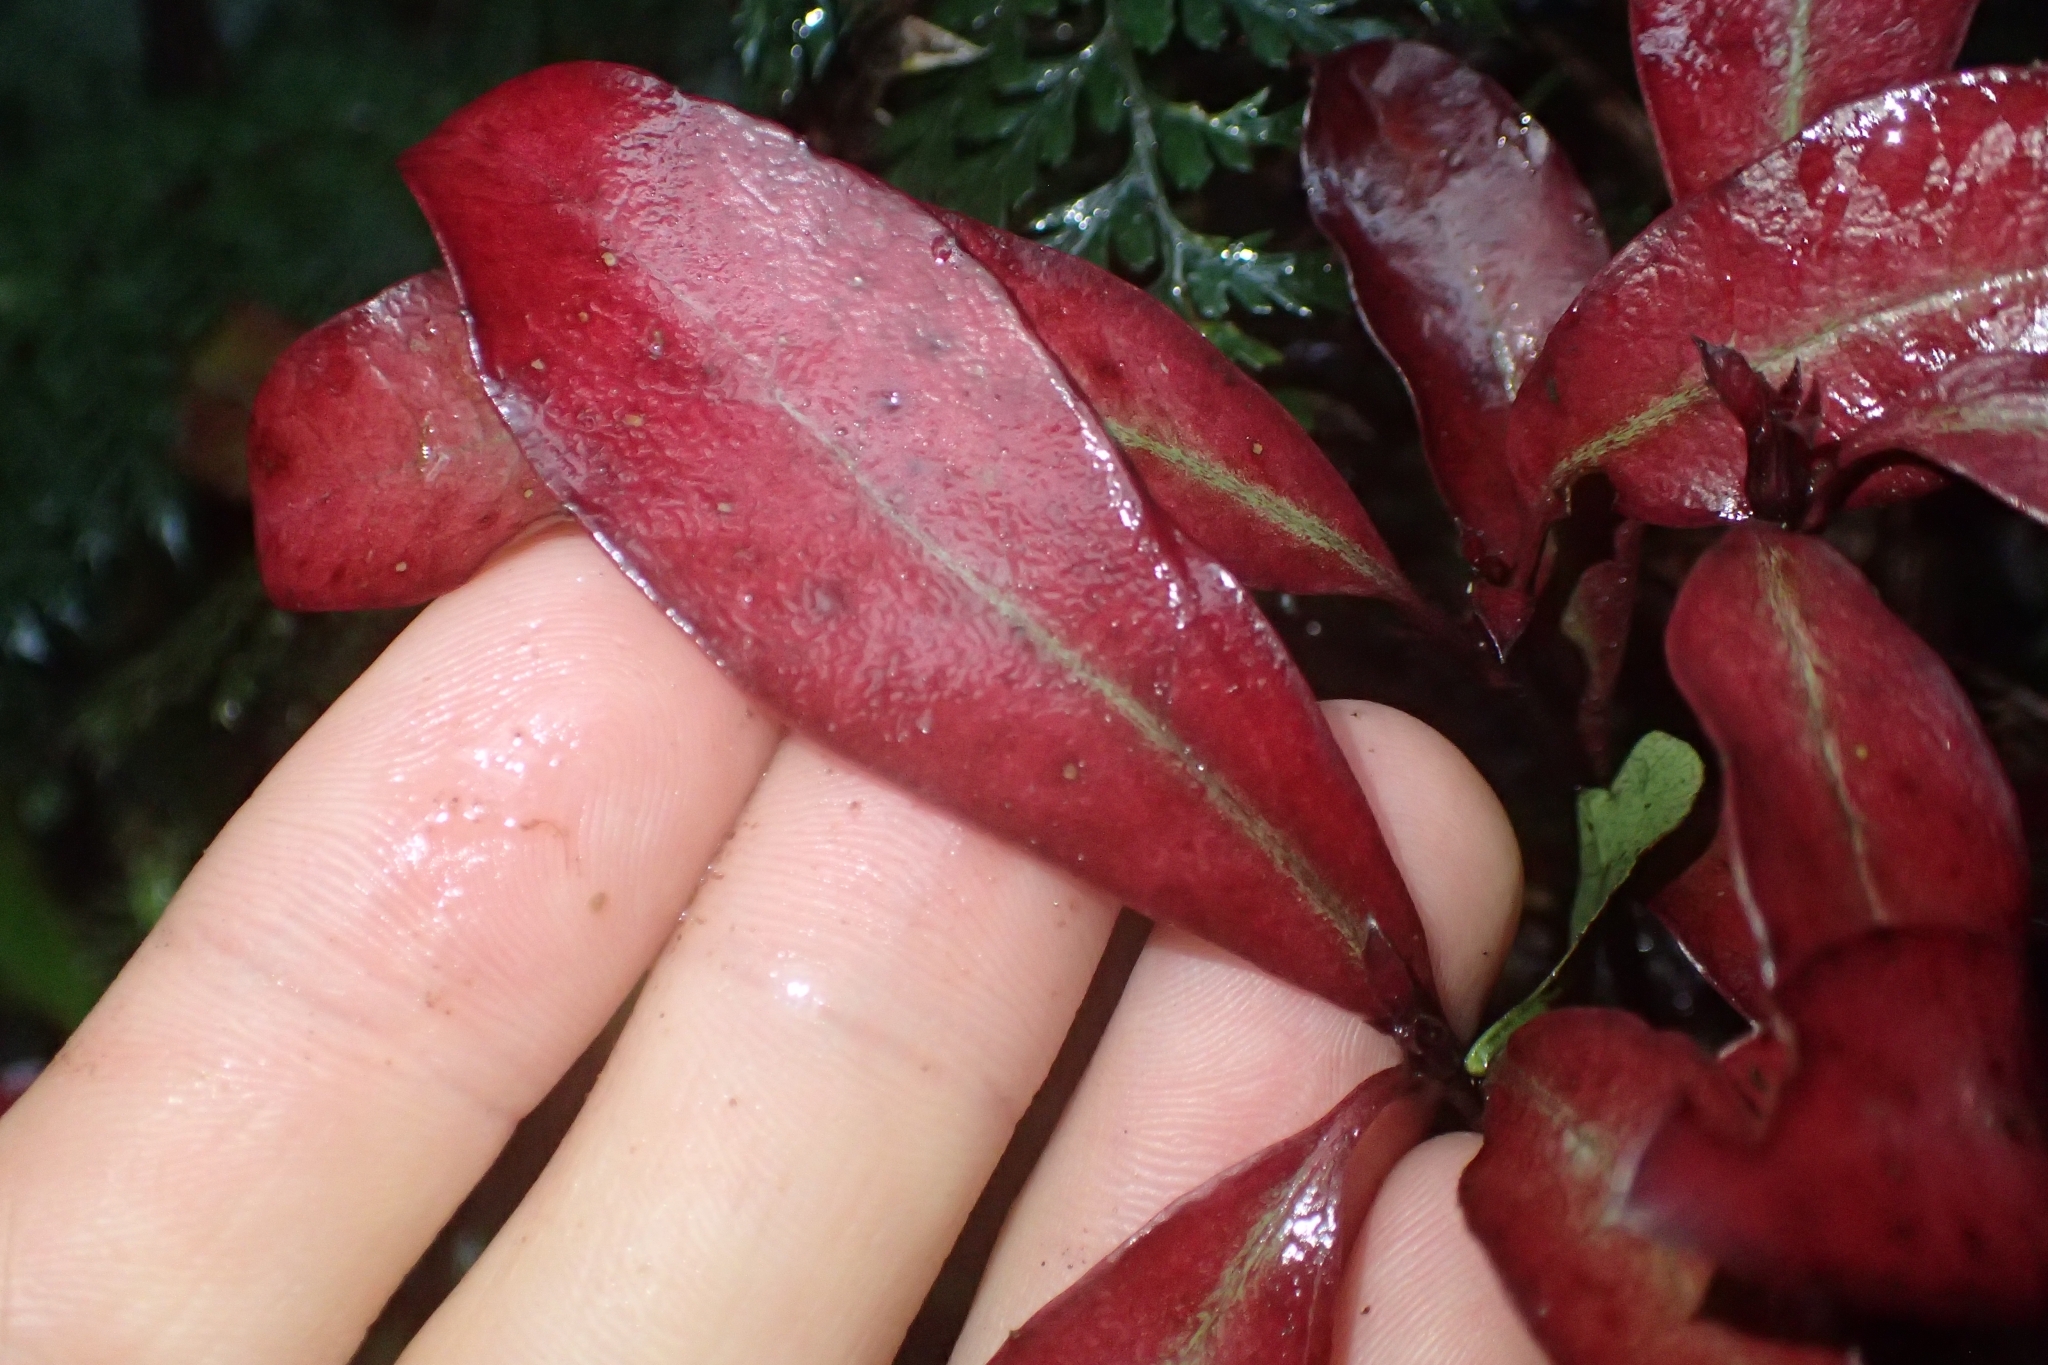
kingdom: Plantae
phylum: Tracheophyta
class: Magnoliopsida
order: Asterales
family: Alseuosmiaceae
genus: Alseuosmia
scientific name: Alseuosmia pusilla
